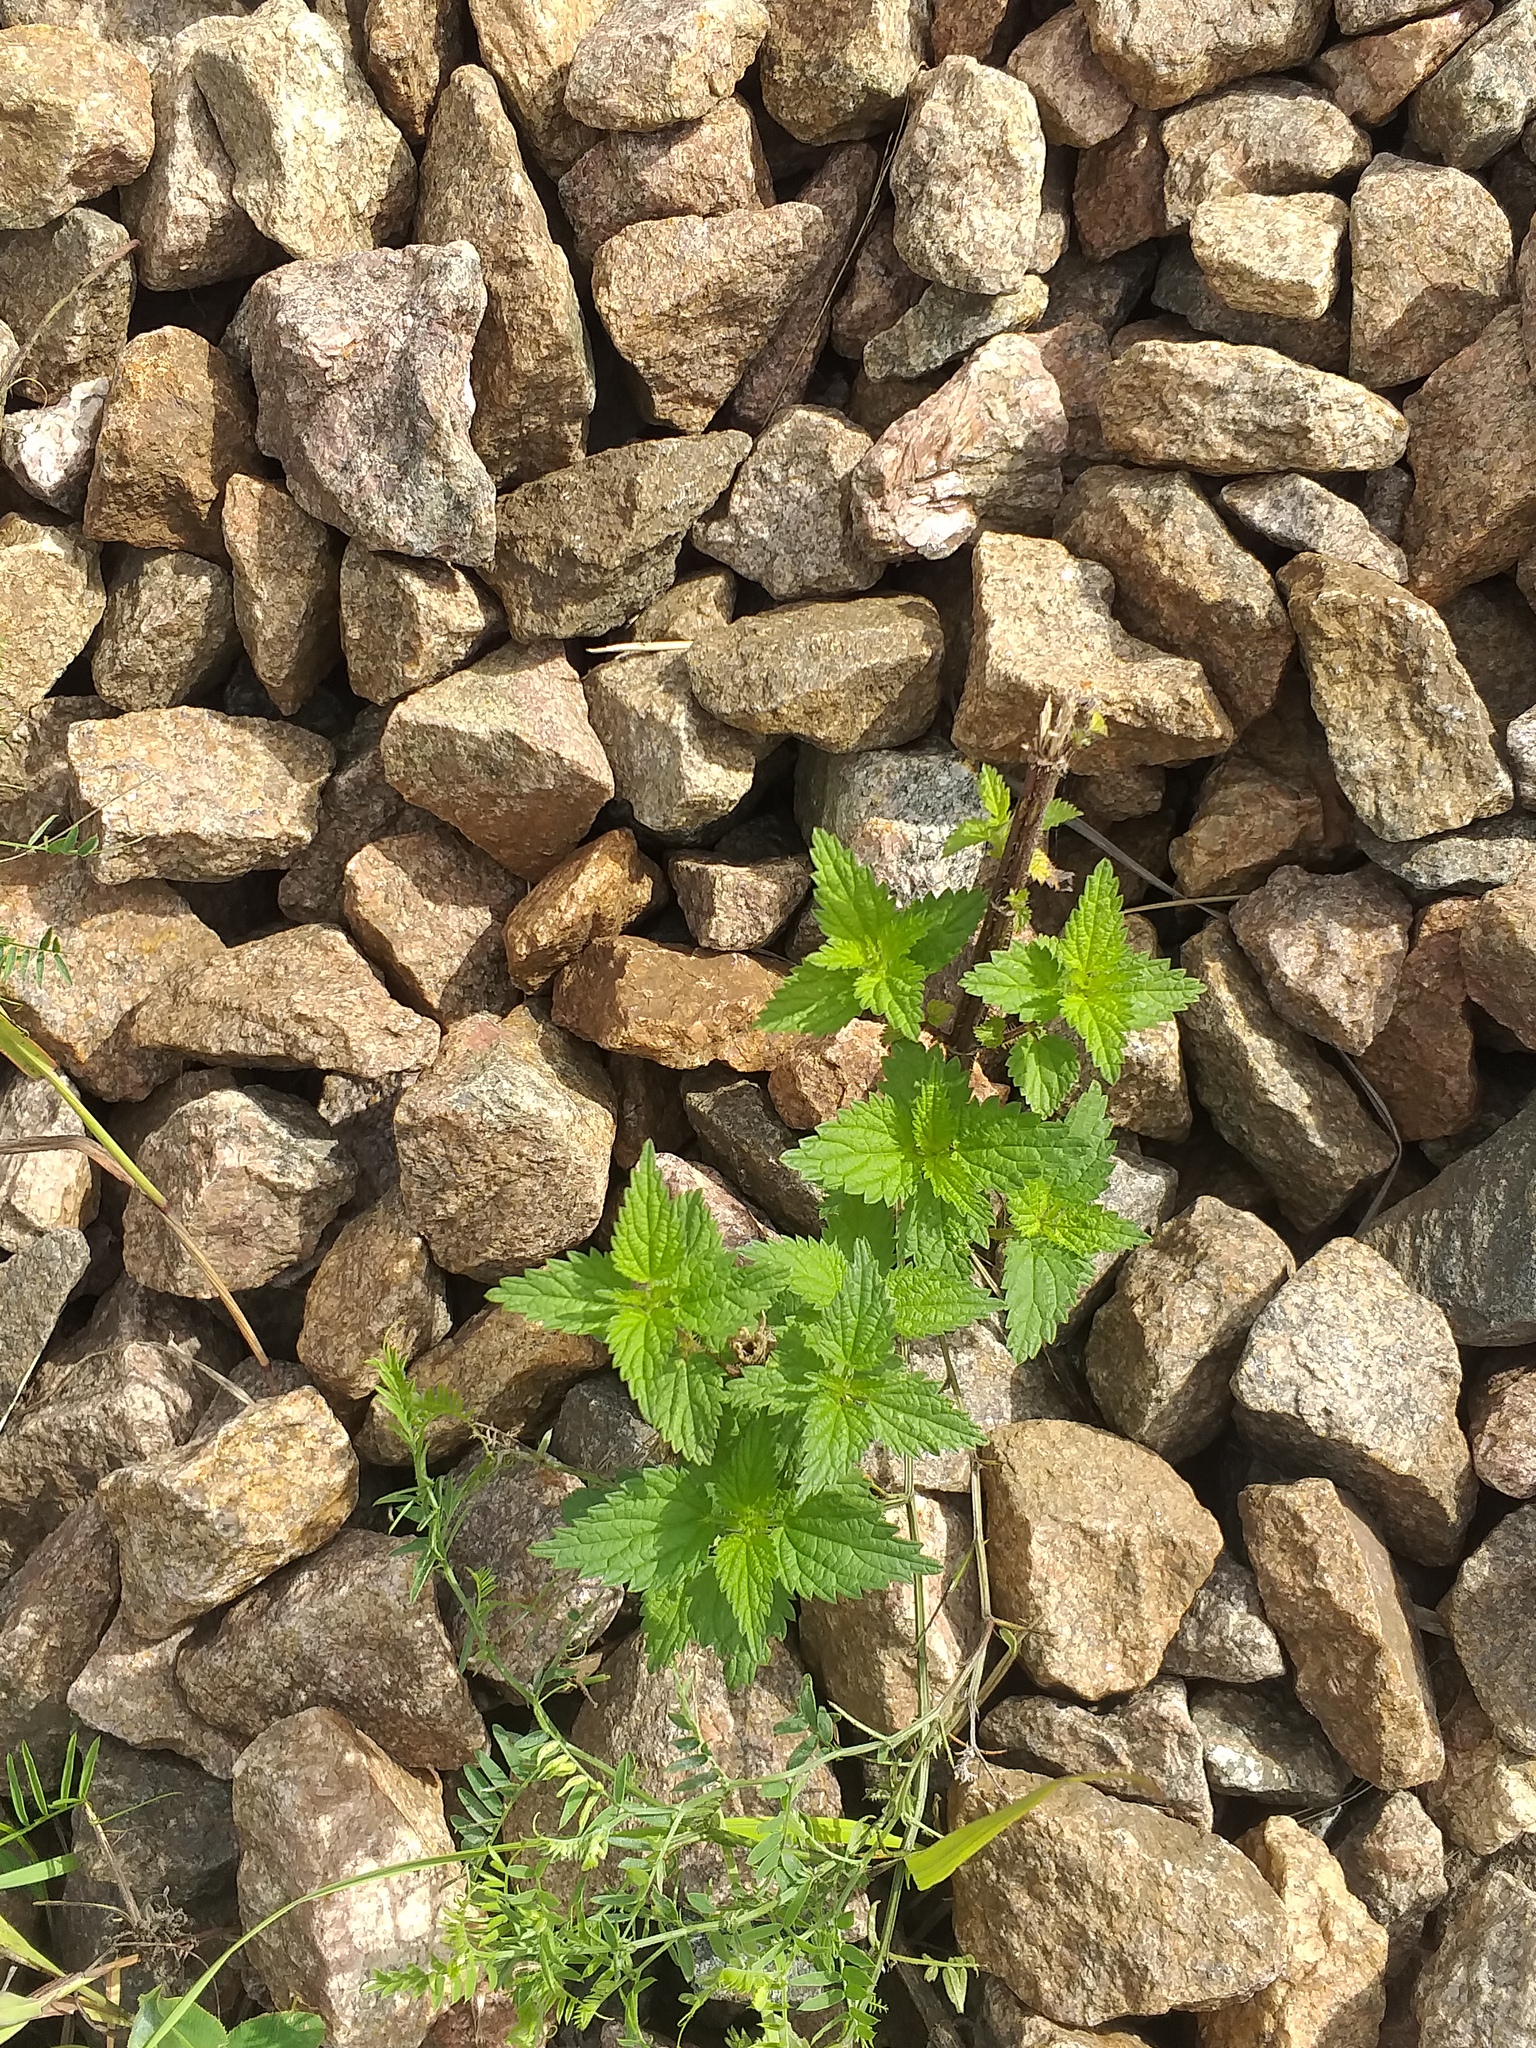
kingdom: Plantae
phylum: Tracheophyta
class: Magnoliopsida
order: Rosales
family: Urticaceae
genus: Urtica
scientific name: Urtica dioica
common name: Common nettle
